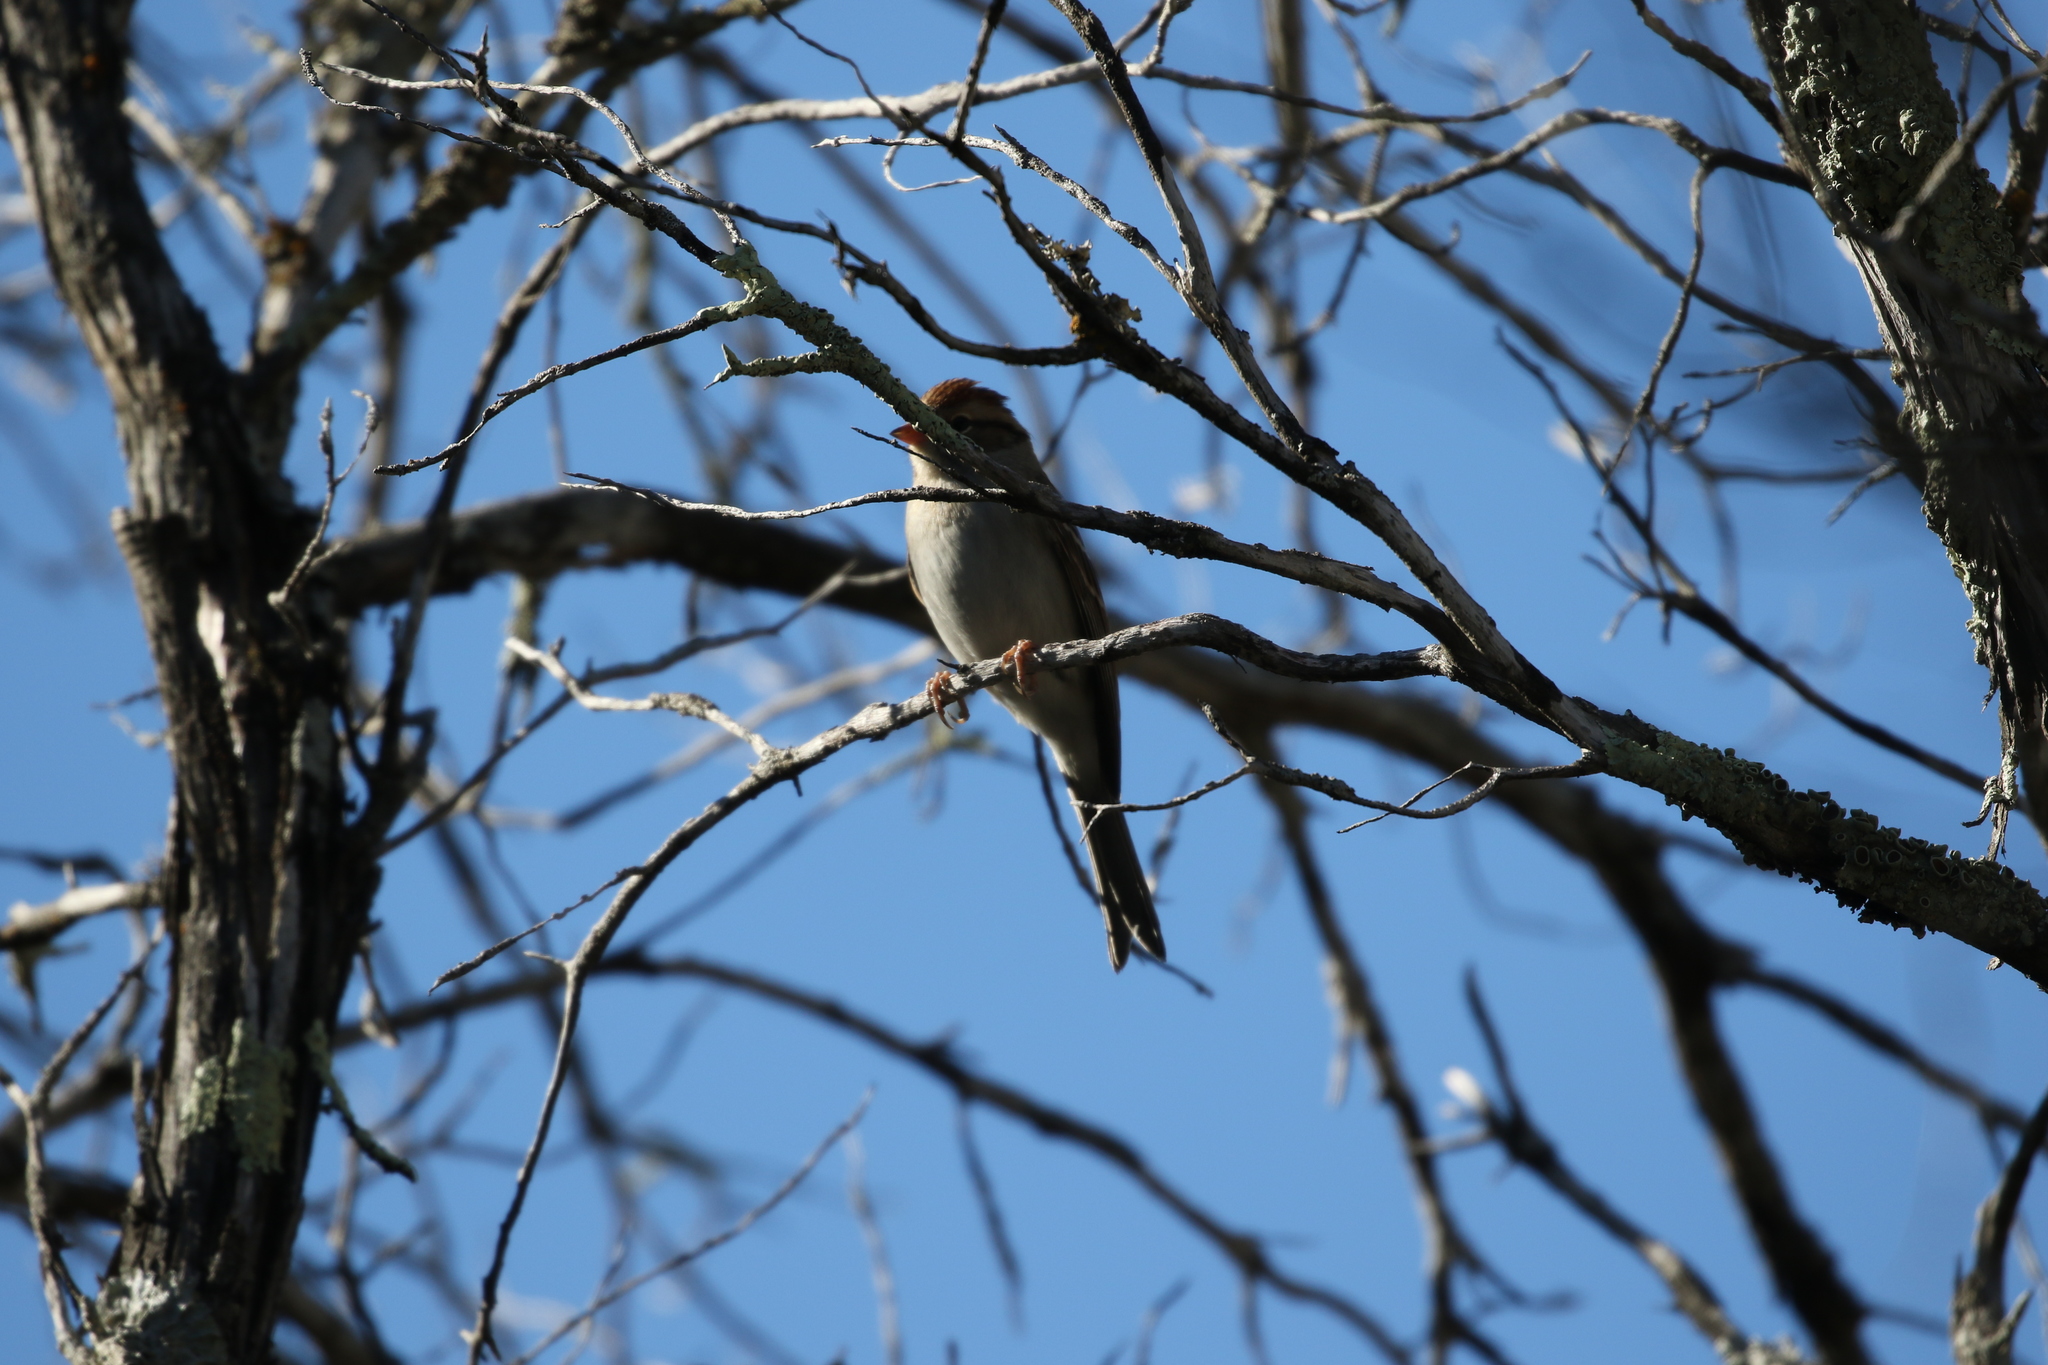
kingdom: Animalia
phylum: Chordata
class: Aves
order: Passeriformes
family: Passerellidae
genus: Spizella
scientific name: Spizella passerina
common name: Chipping sparrow
